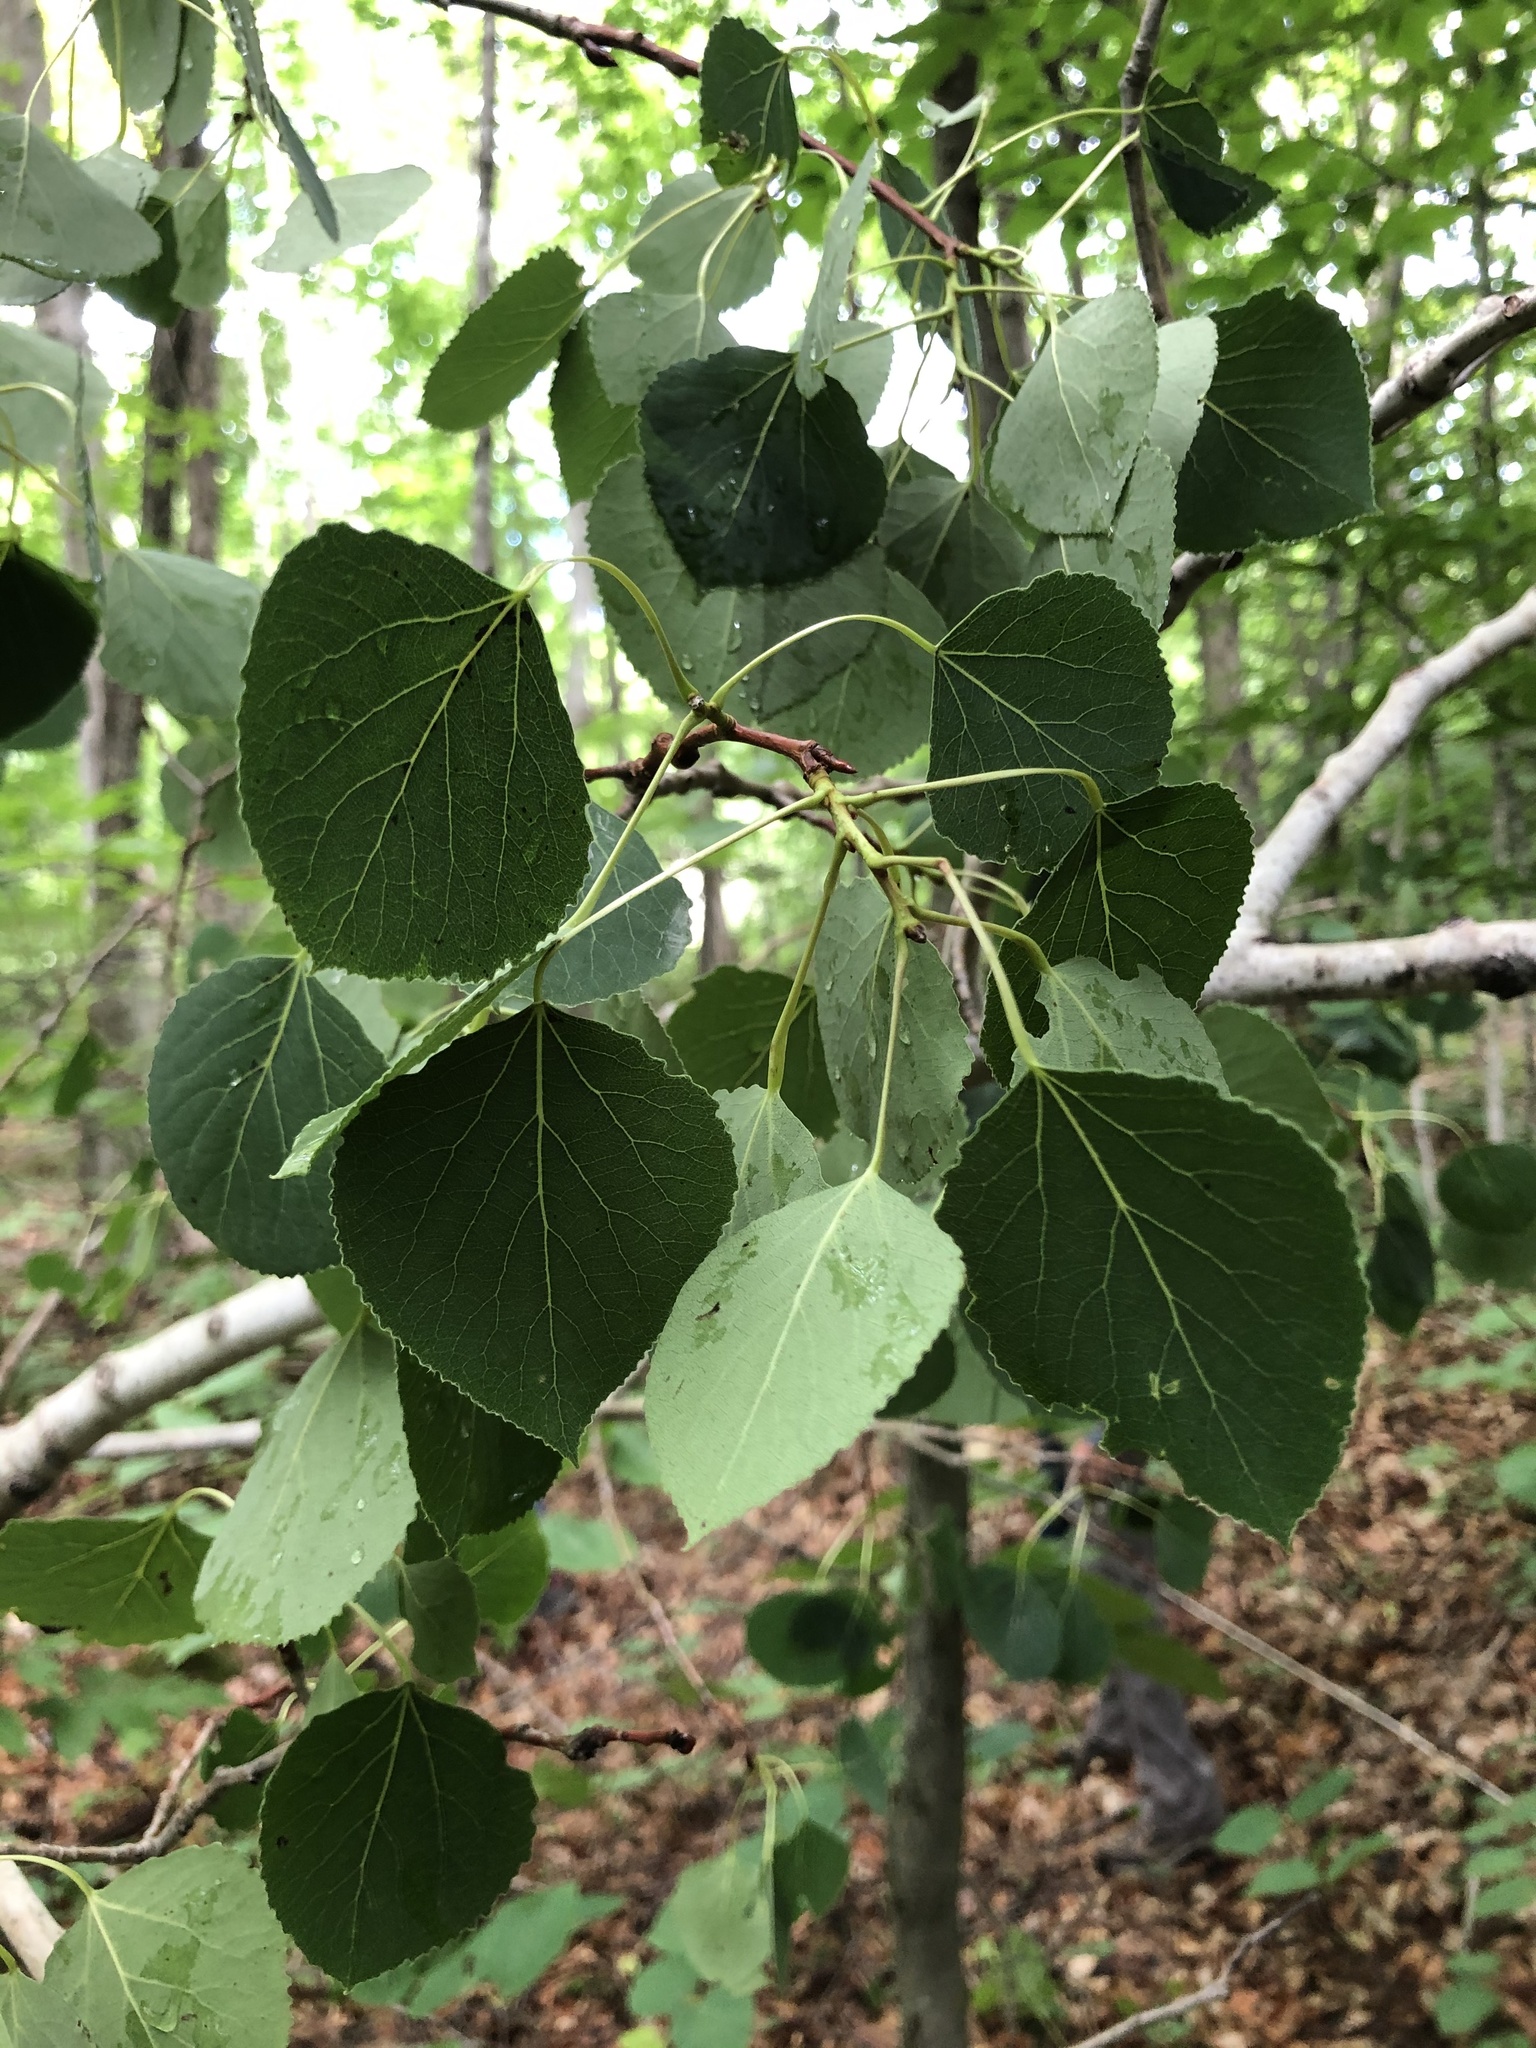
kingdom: Plantae
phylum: Tracheophyta
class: Magnoliopsida
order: Malpighiales
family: Salicaceae
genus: Populus
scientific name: Populus tremuloides
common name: Quaking aspen
